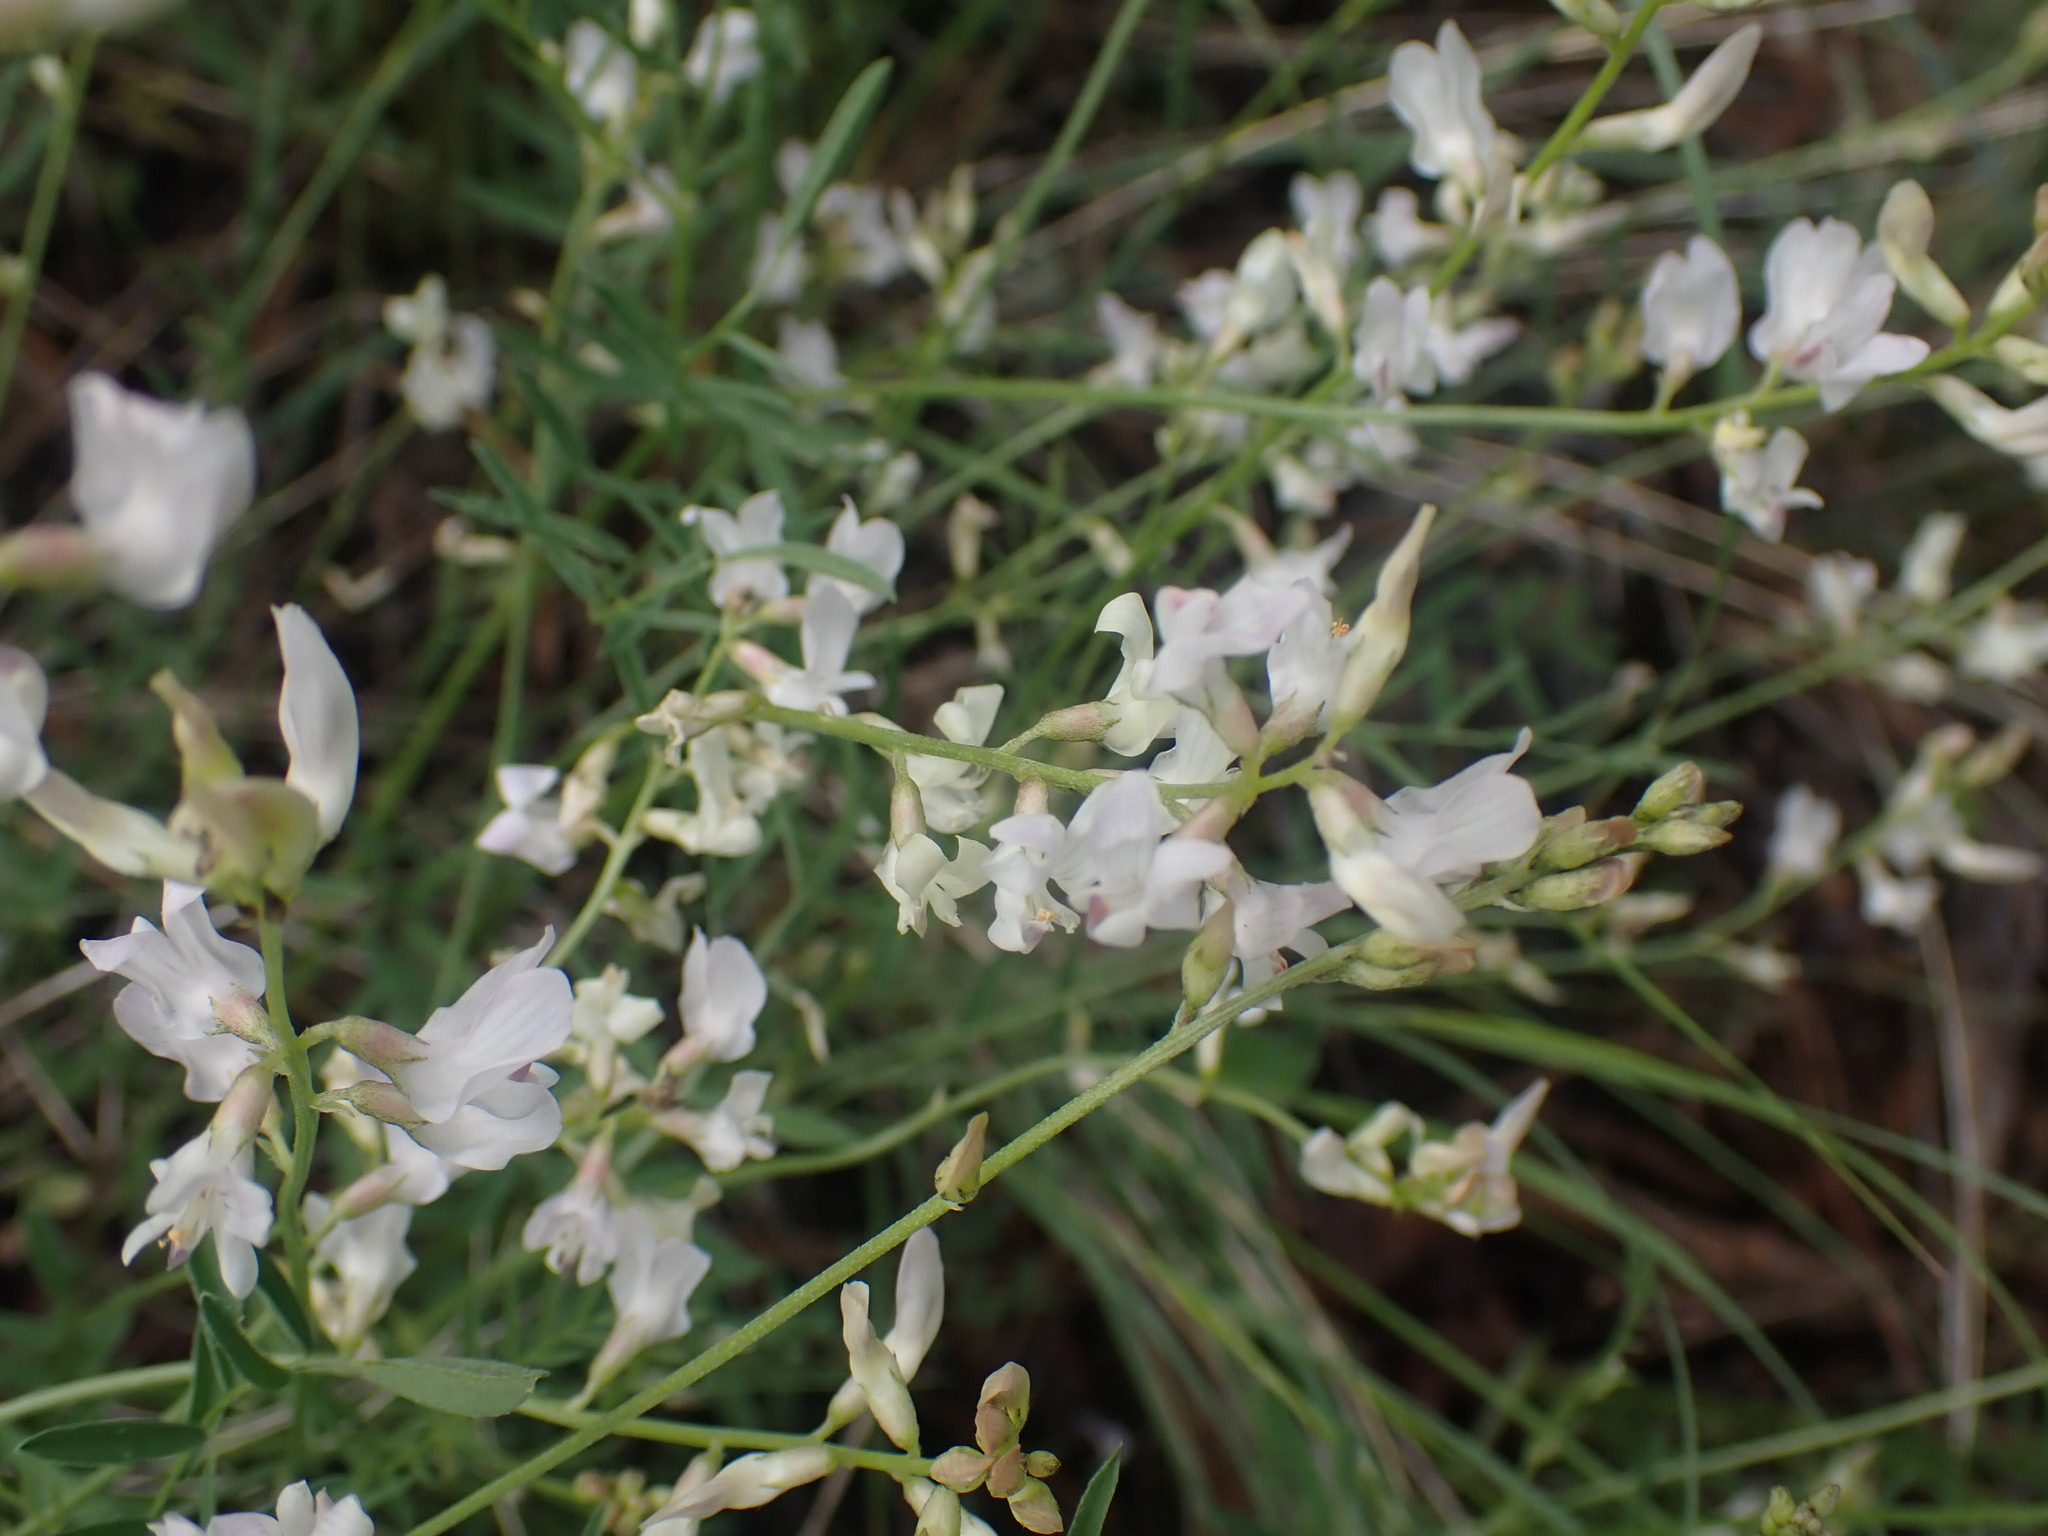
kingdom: Plantae
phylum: Tracheophyta
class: Magnoliopsida
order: Fabales
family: Fabaceae
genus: Astragalus
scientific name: Astragalus miser
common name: Timber milkvetch
